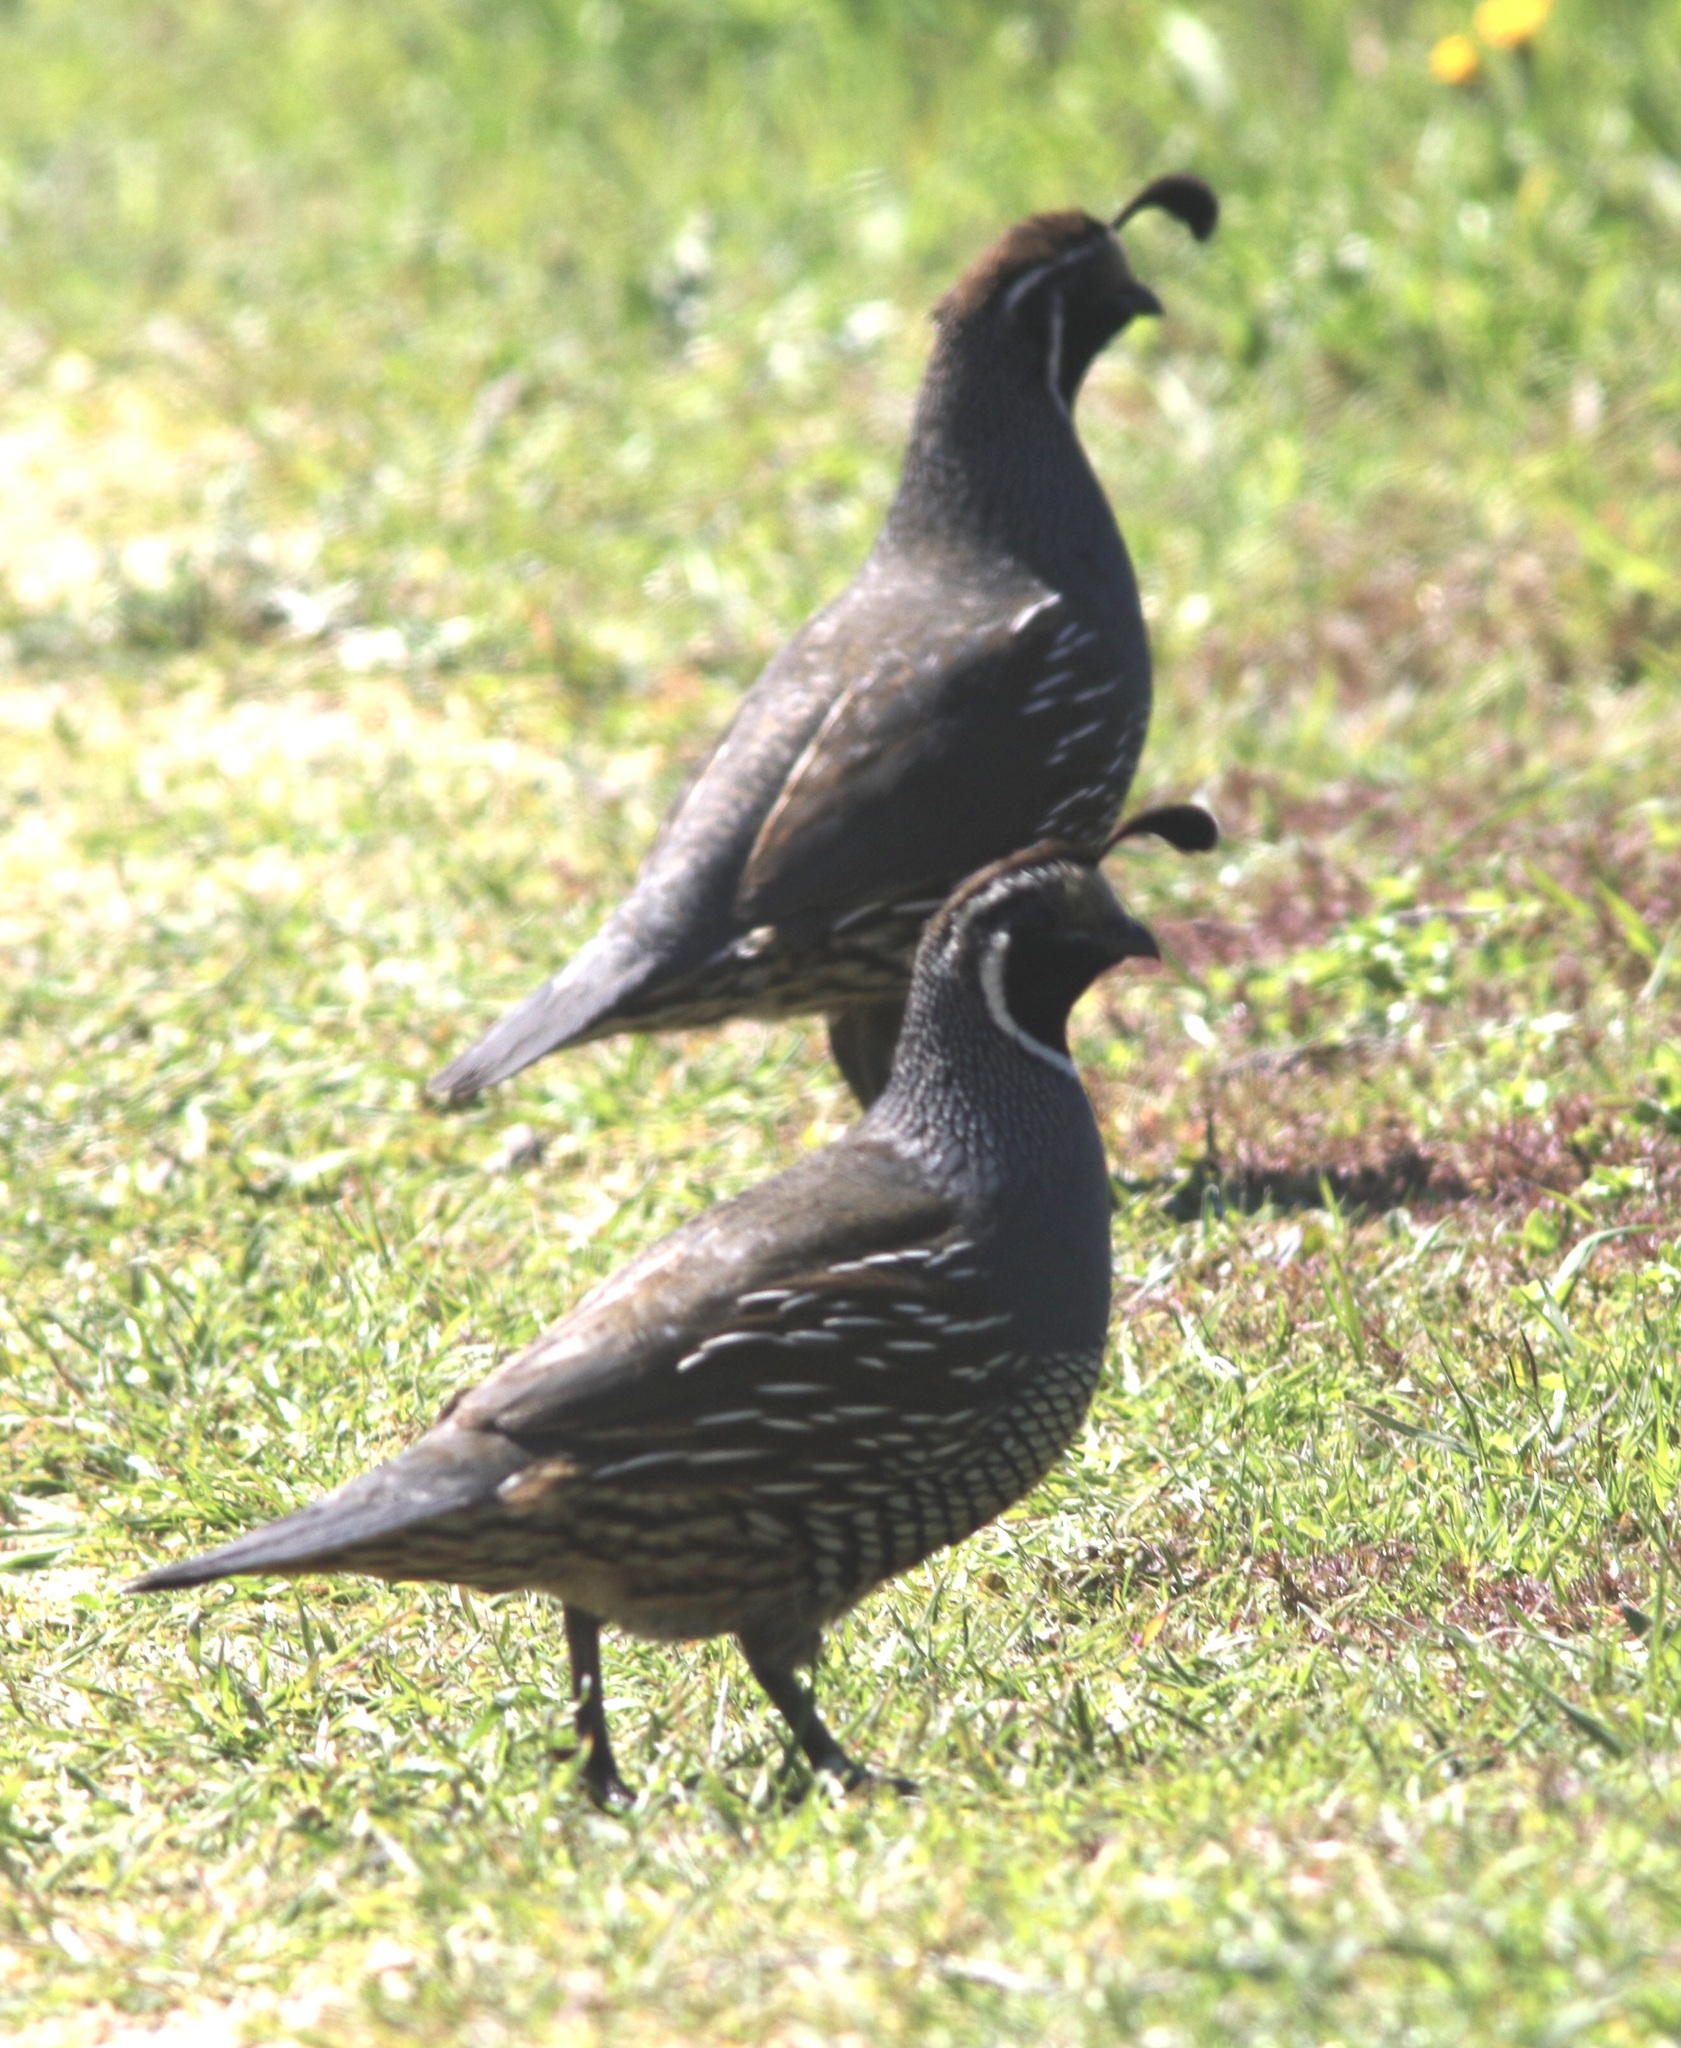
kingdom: Animalia
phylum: Chordata
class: Aves
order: Galliformes
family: Odontophoridae
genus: Callipepla
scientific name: Callipepla californica
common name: California quail
